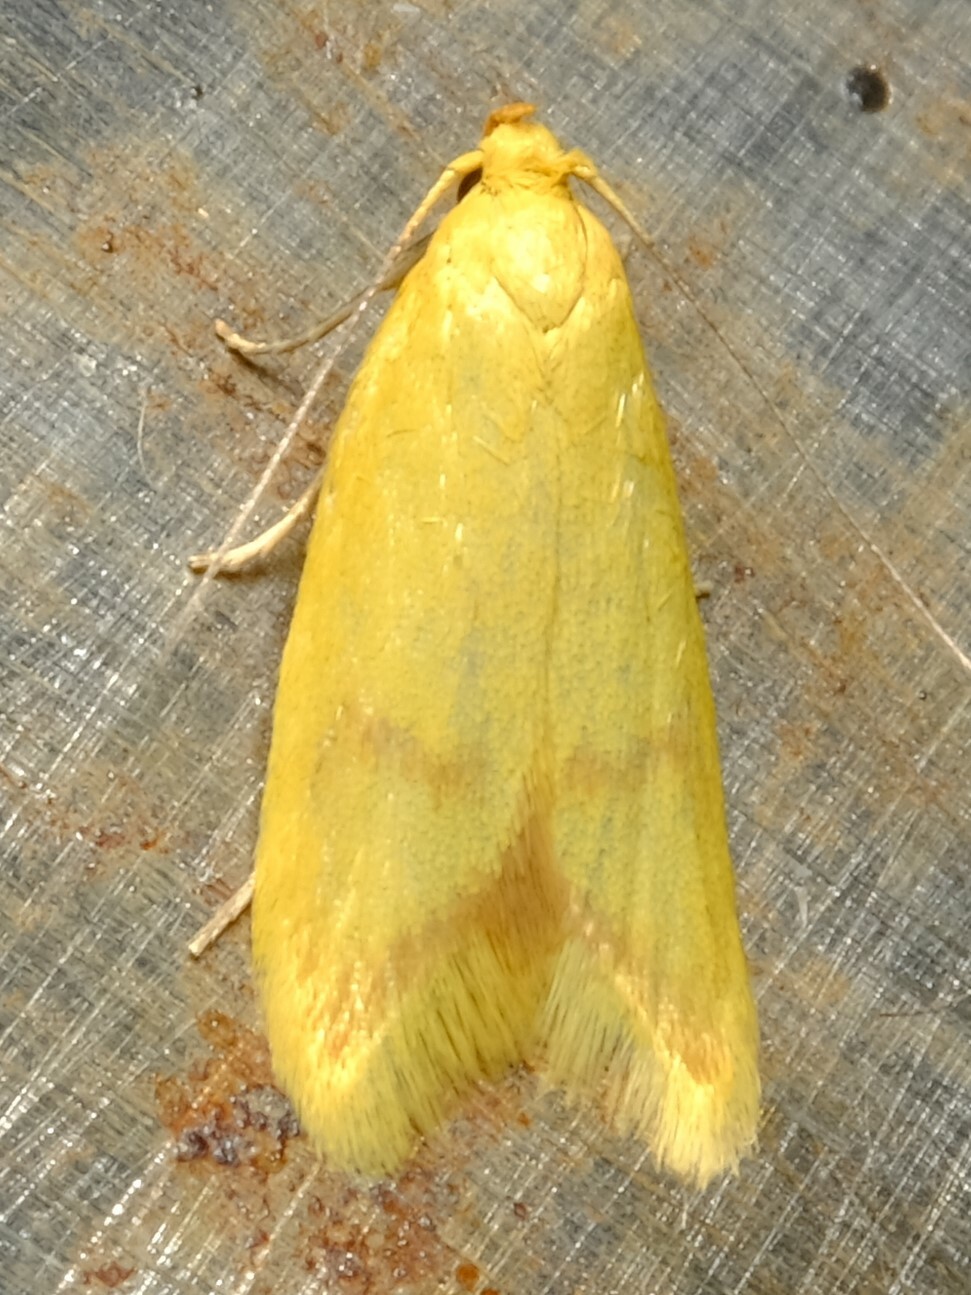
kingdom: Animalia
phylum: Arthropoda
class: Insecta
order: Lepidoptera
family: Oecophoridae
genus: Aeolothapsa
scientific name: Aeolothapsa malacella
